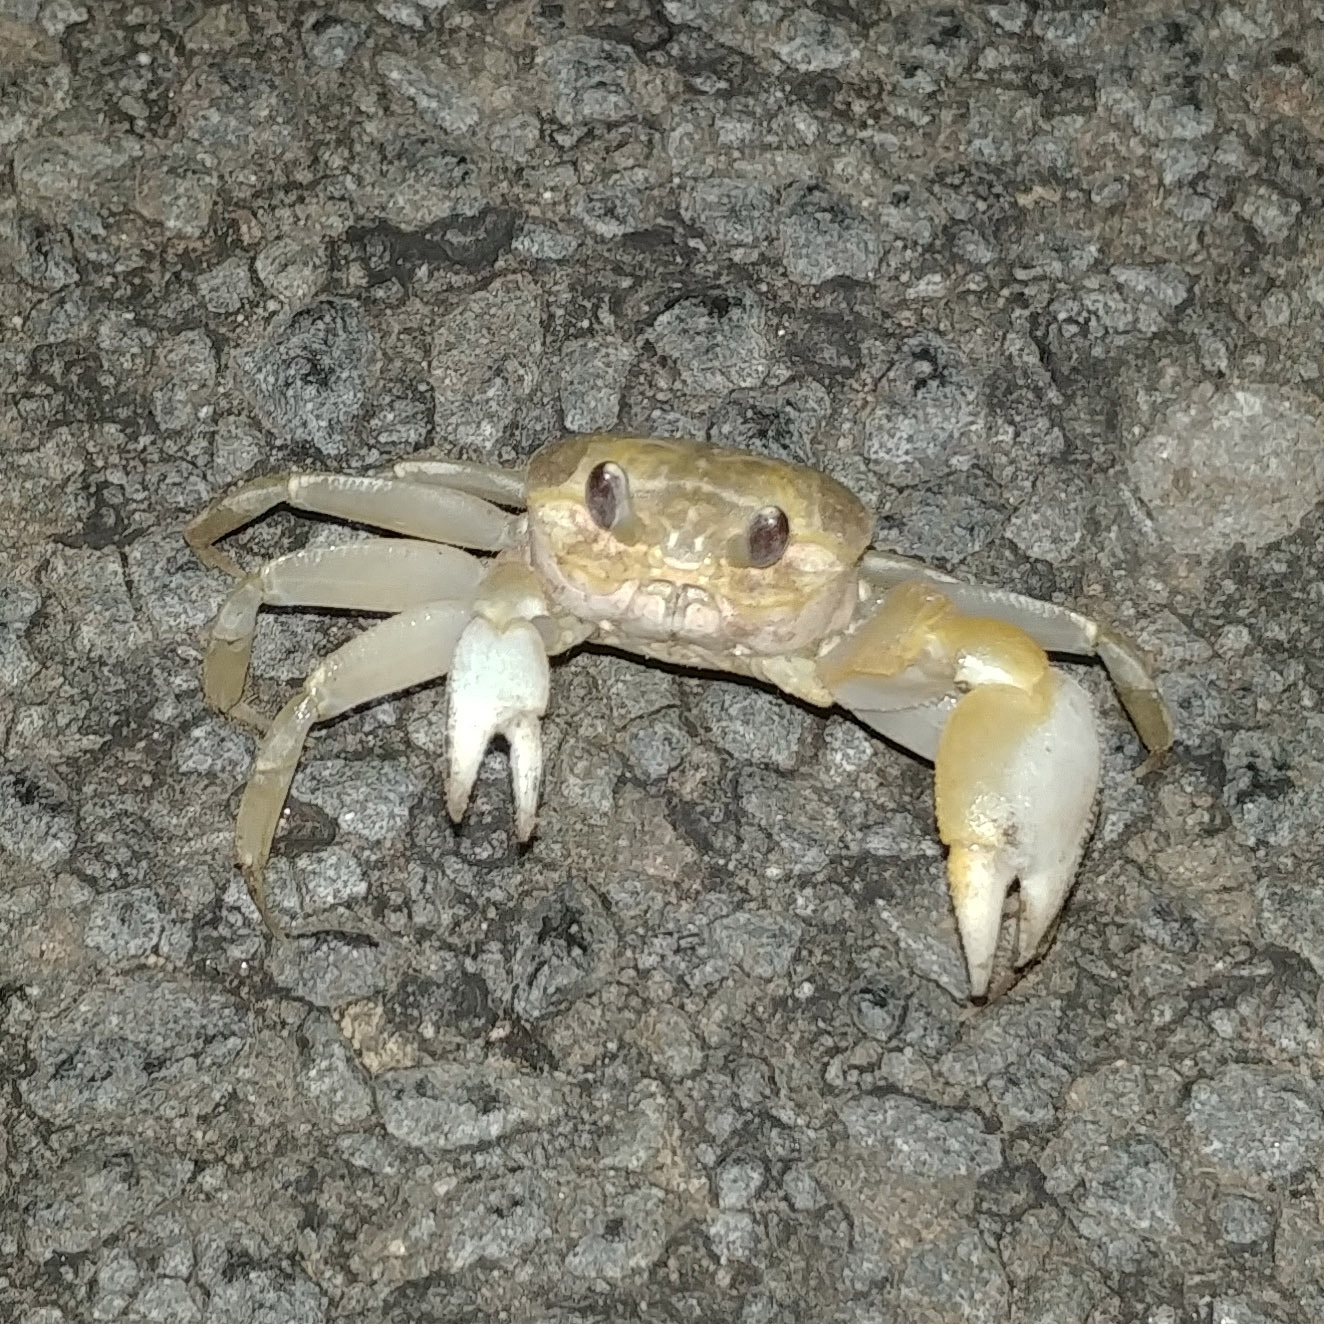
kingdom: Animalia
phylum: Arthropoda
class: Malacostraca
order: Decapoda
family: Ocypodidae
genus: Ocypode
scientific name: Ocypode cordimana
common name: Smooth-eyed ghost crab
